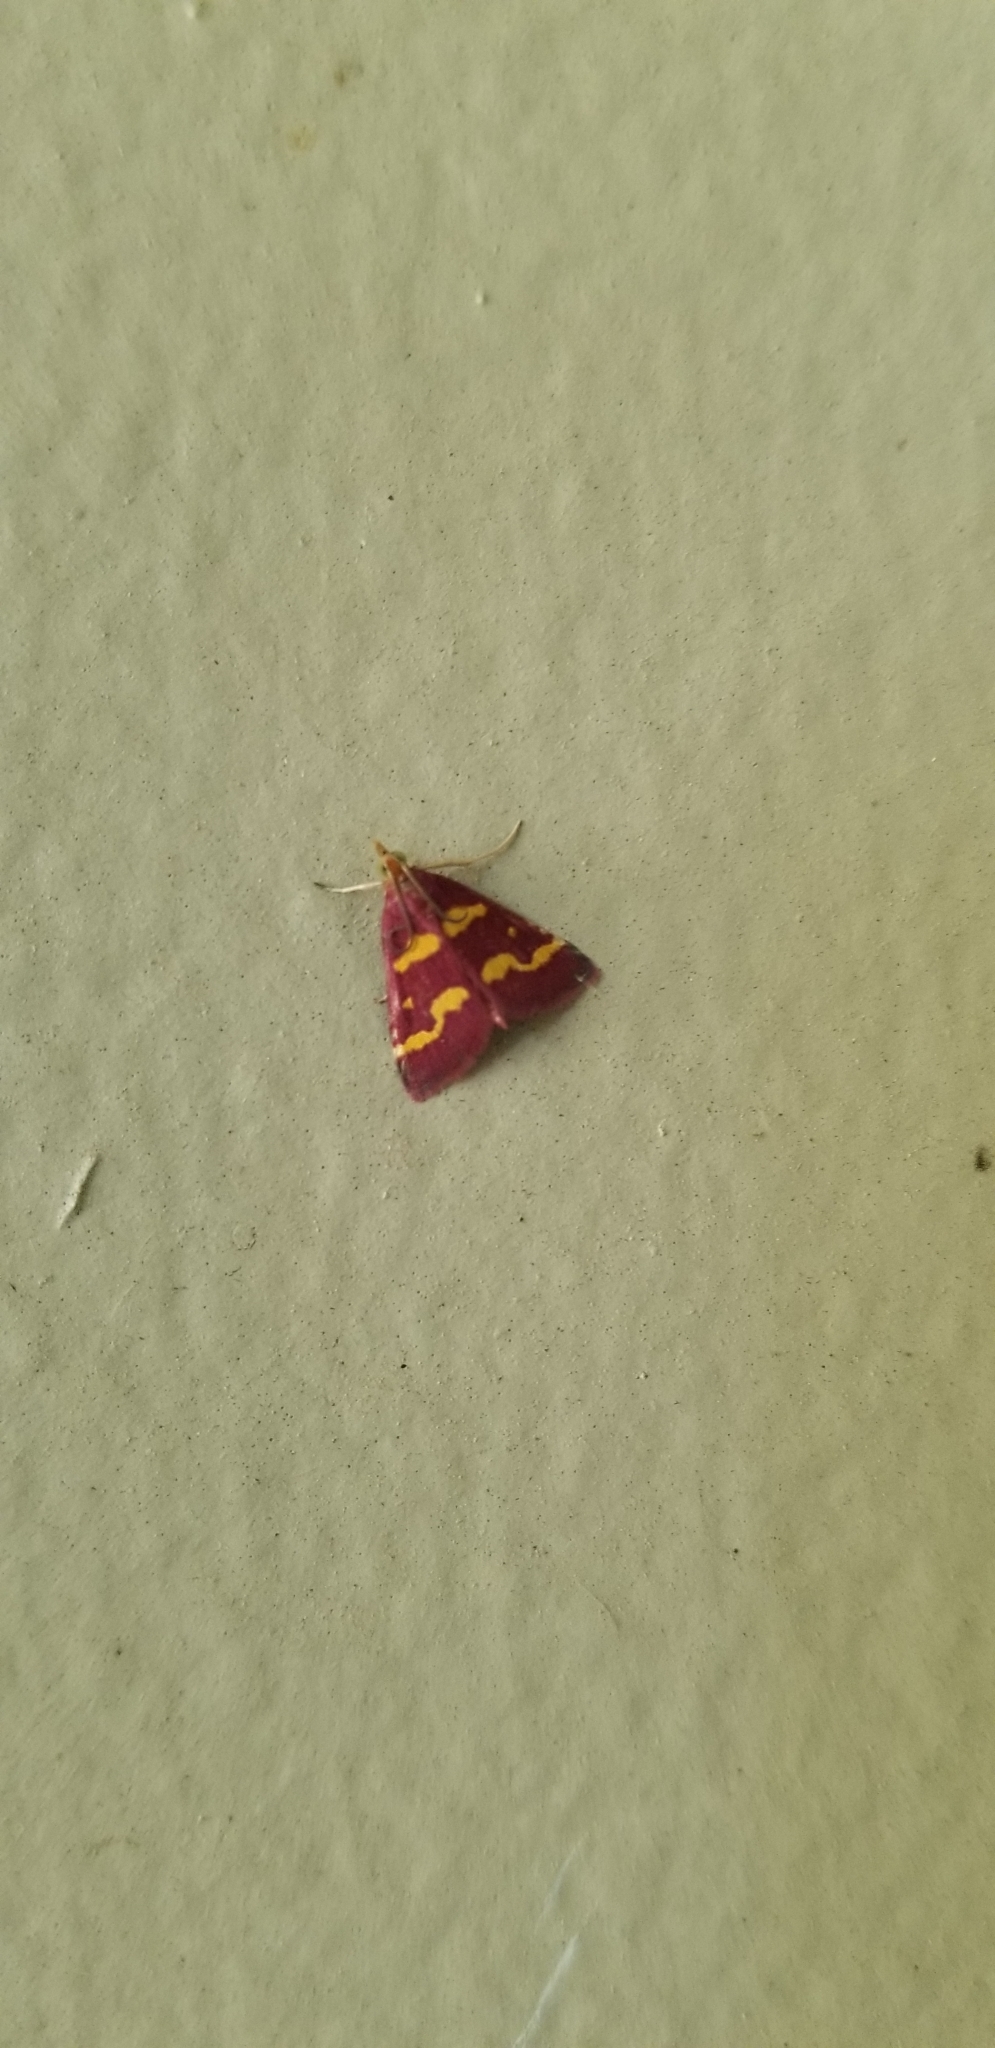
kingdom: Animalia
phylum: Arthropoda
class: Insecta
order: Lepidoptera
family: Crambidae
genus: Pyrausta
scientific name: Pyrausta tyralis
